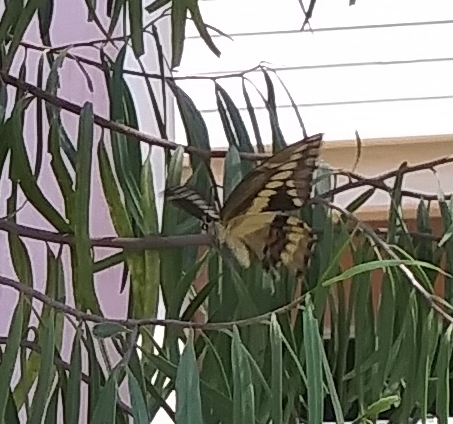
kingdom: Animalia
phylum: Arthropoda
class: Insecta
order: Lepidoptera
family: Papilionidae
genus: Papilio
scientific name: Papilio rumiko
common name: Western giant swallowtail
